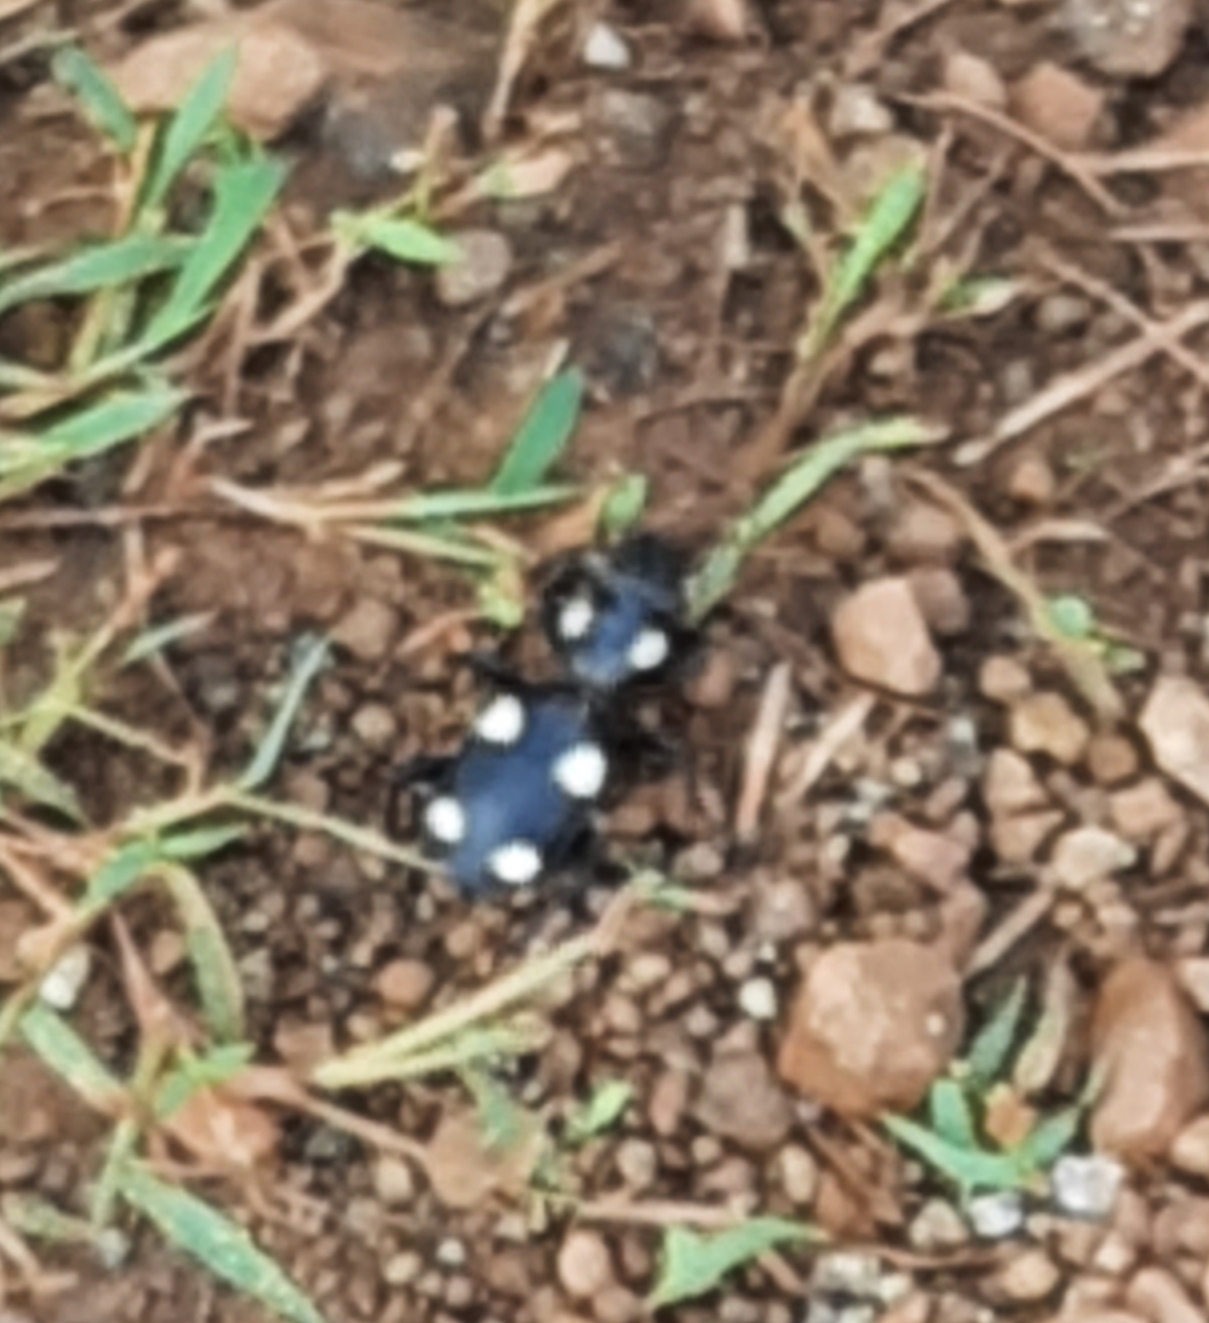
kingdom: Animalia
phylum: Arthropoda
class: Insecta
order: Coleoptera
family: Carabidae
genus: Anthia
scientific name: Anthia sexguttata
